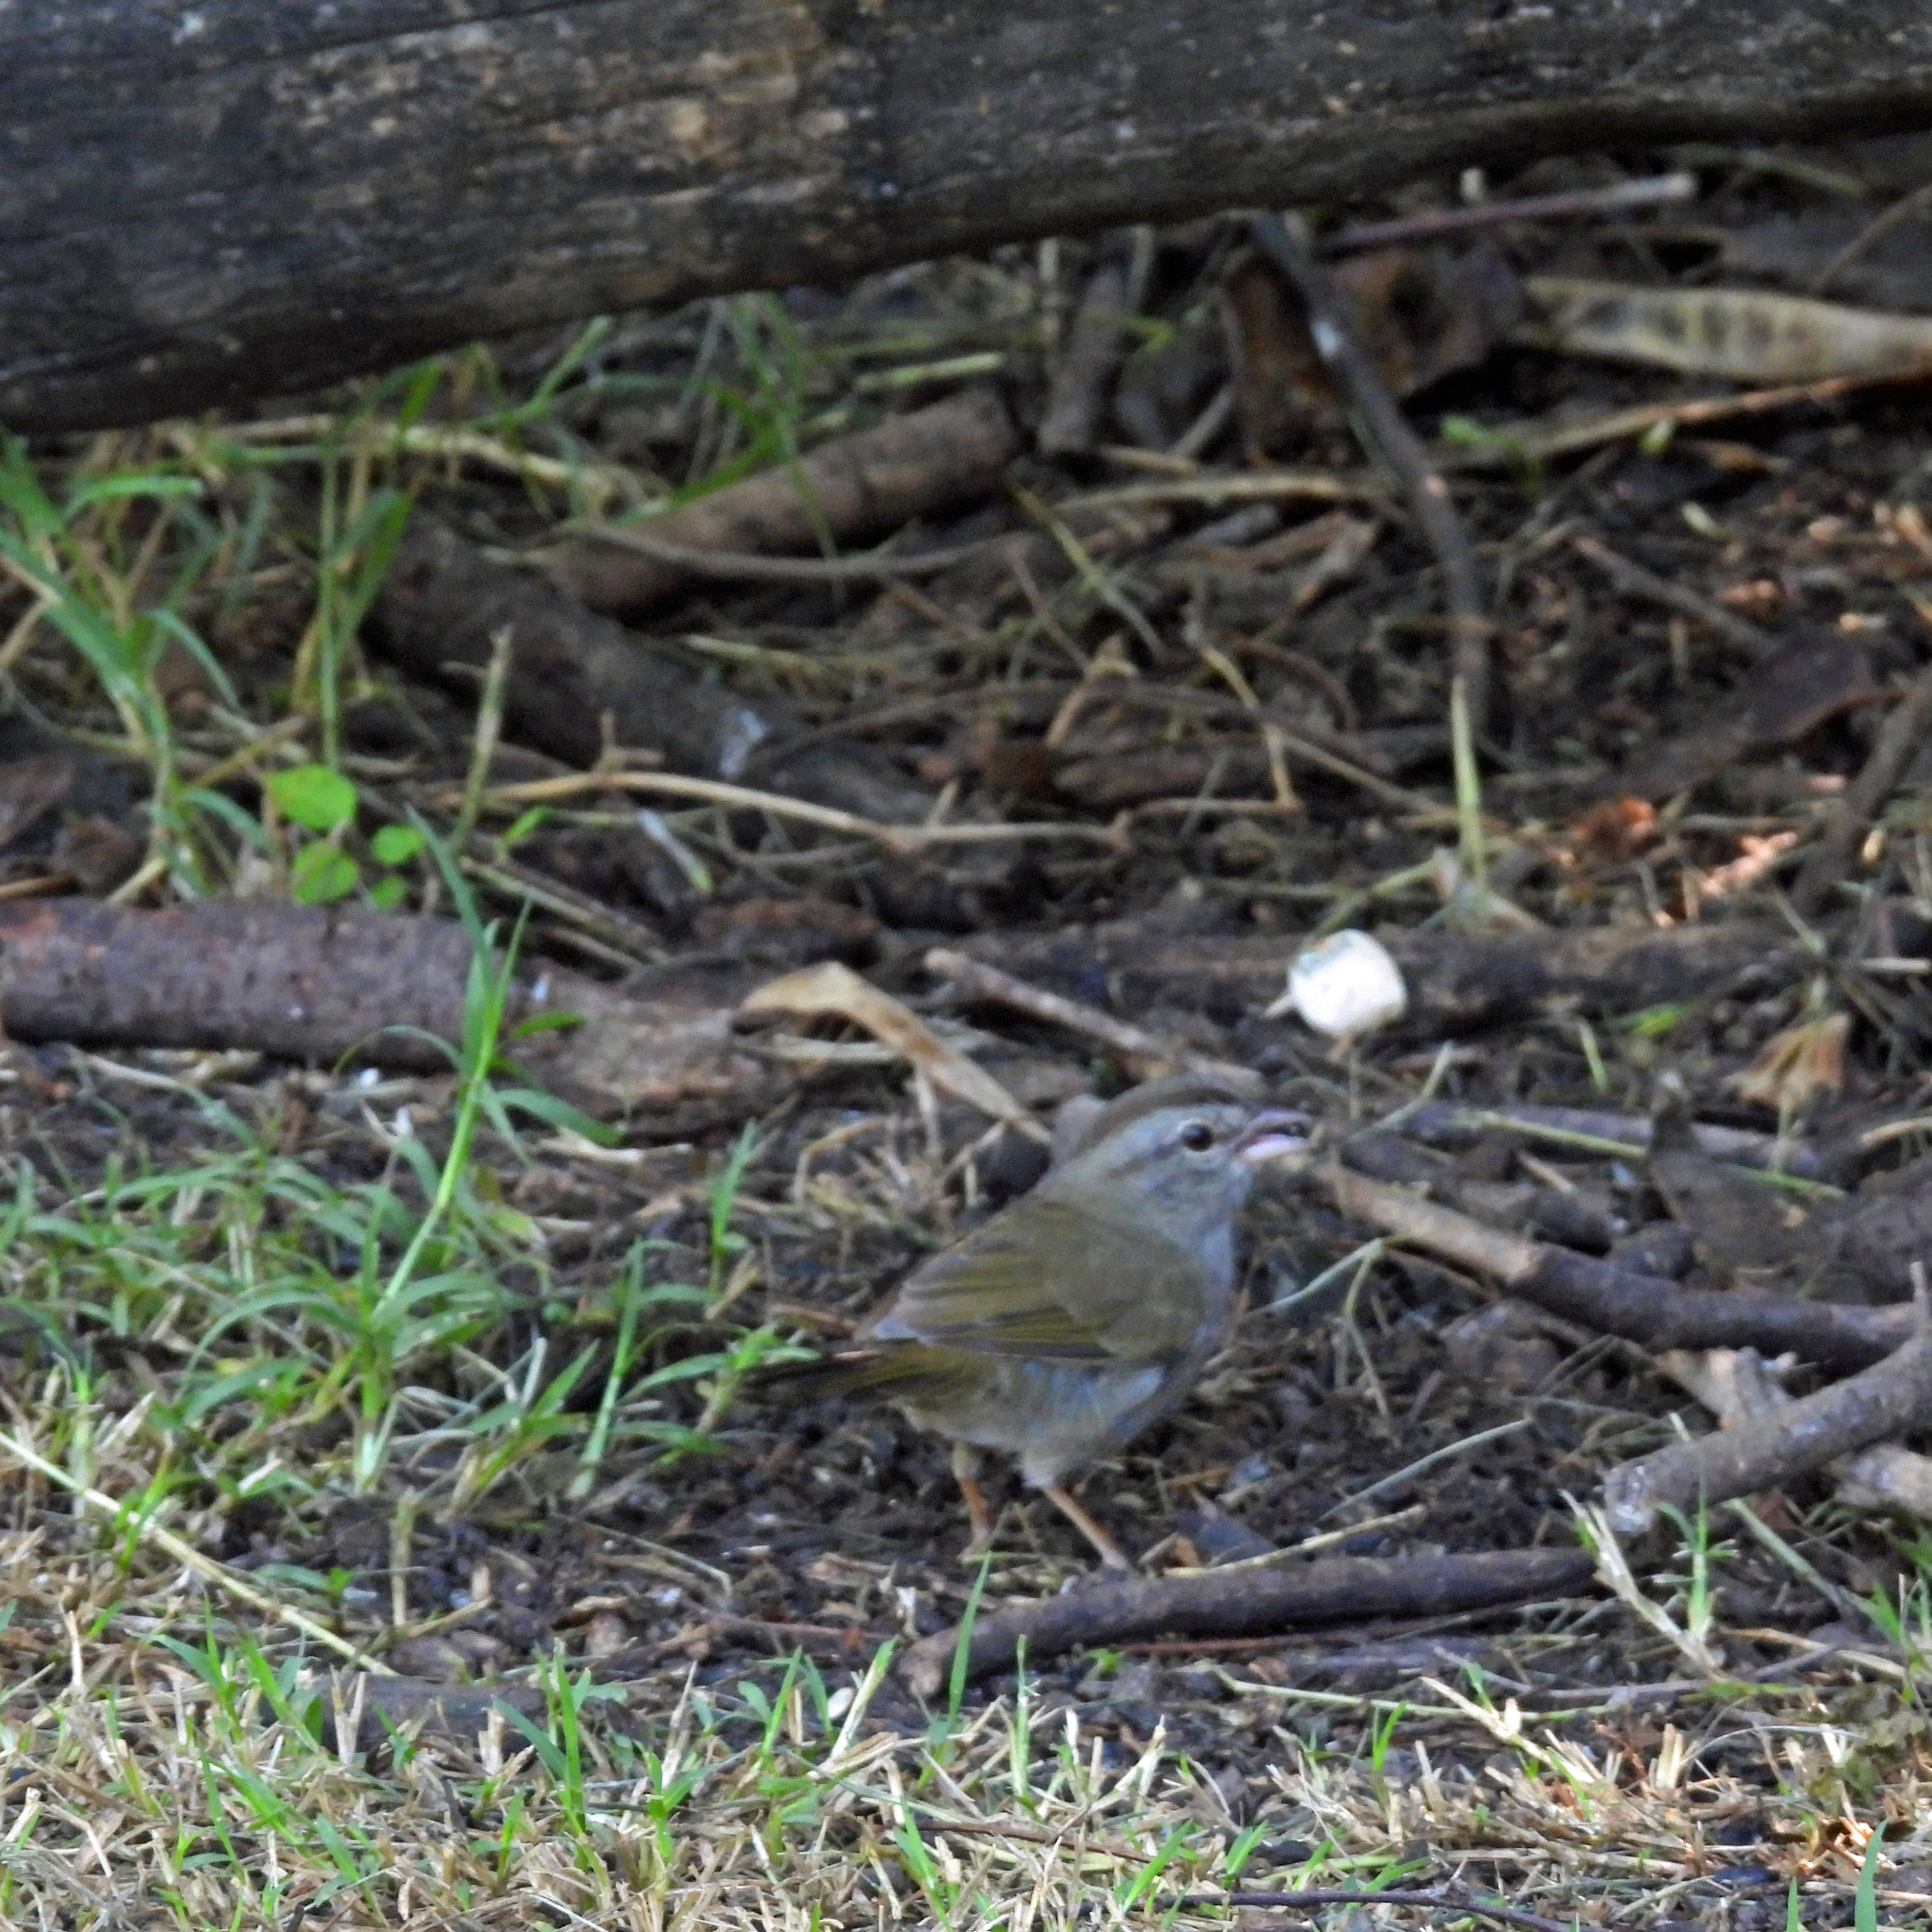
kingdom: Animalia
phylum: Chordata
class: Aves
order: Passeriformes
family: Passerellidae
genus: Arremonops
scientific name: Arremonops rufivirgatus
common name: Olive sparrow
